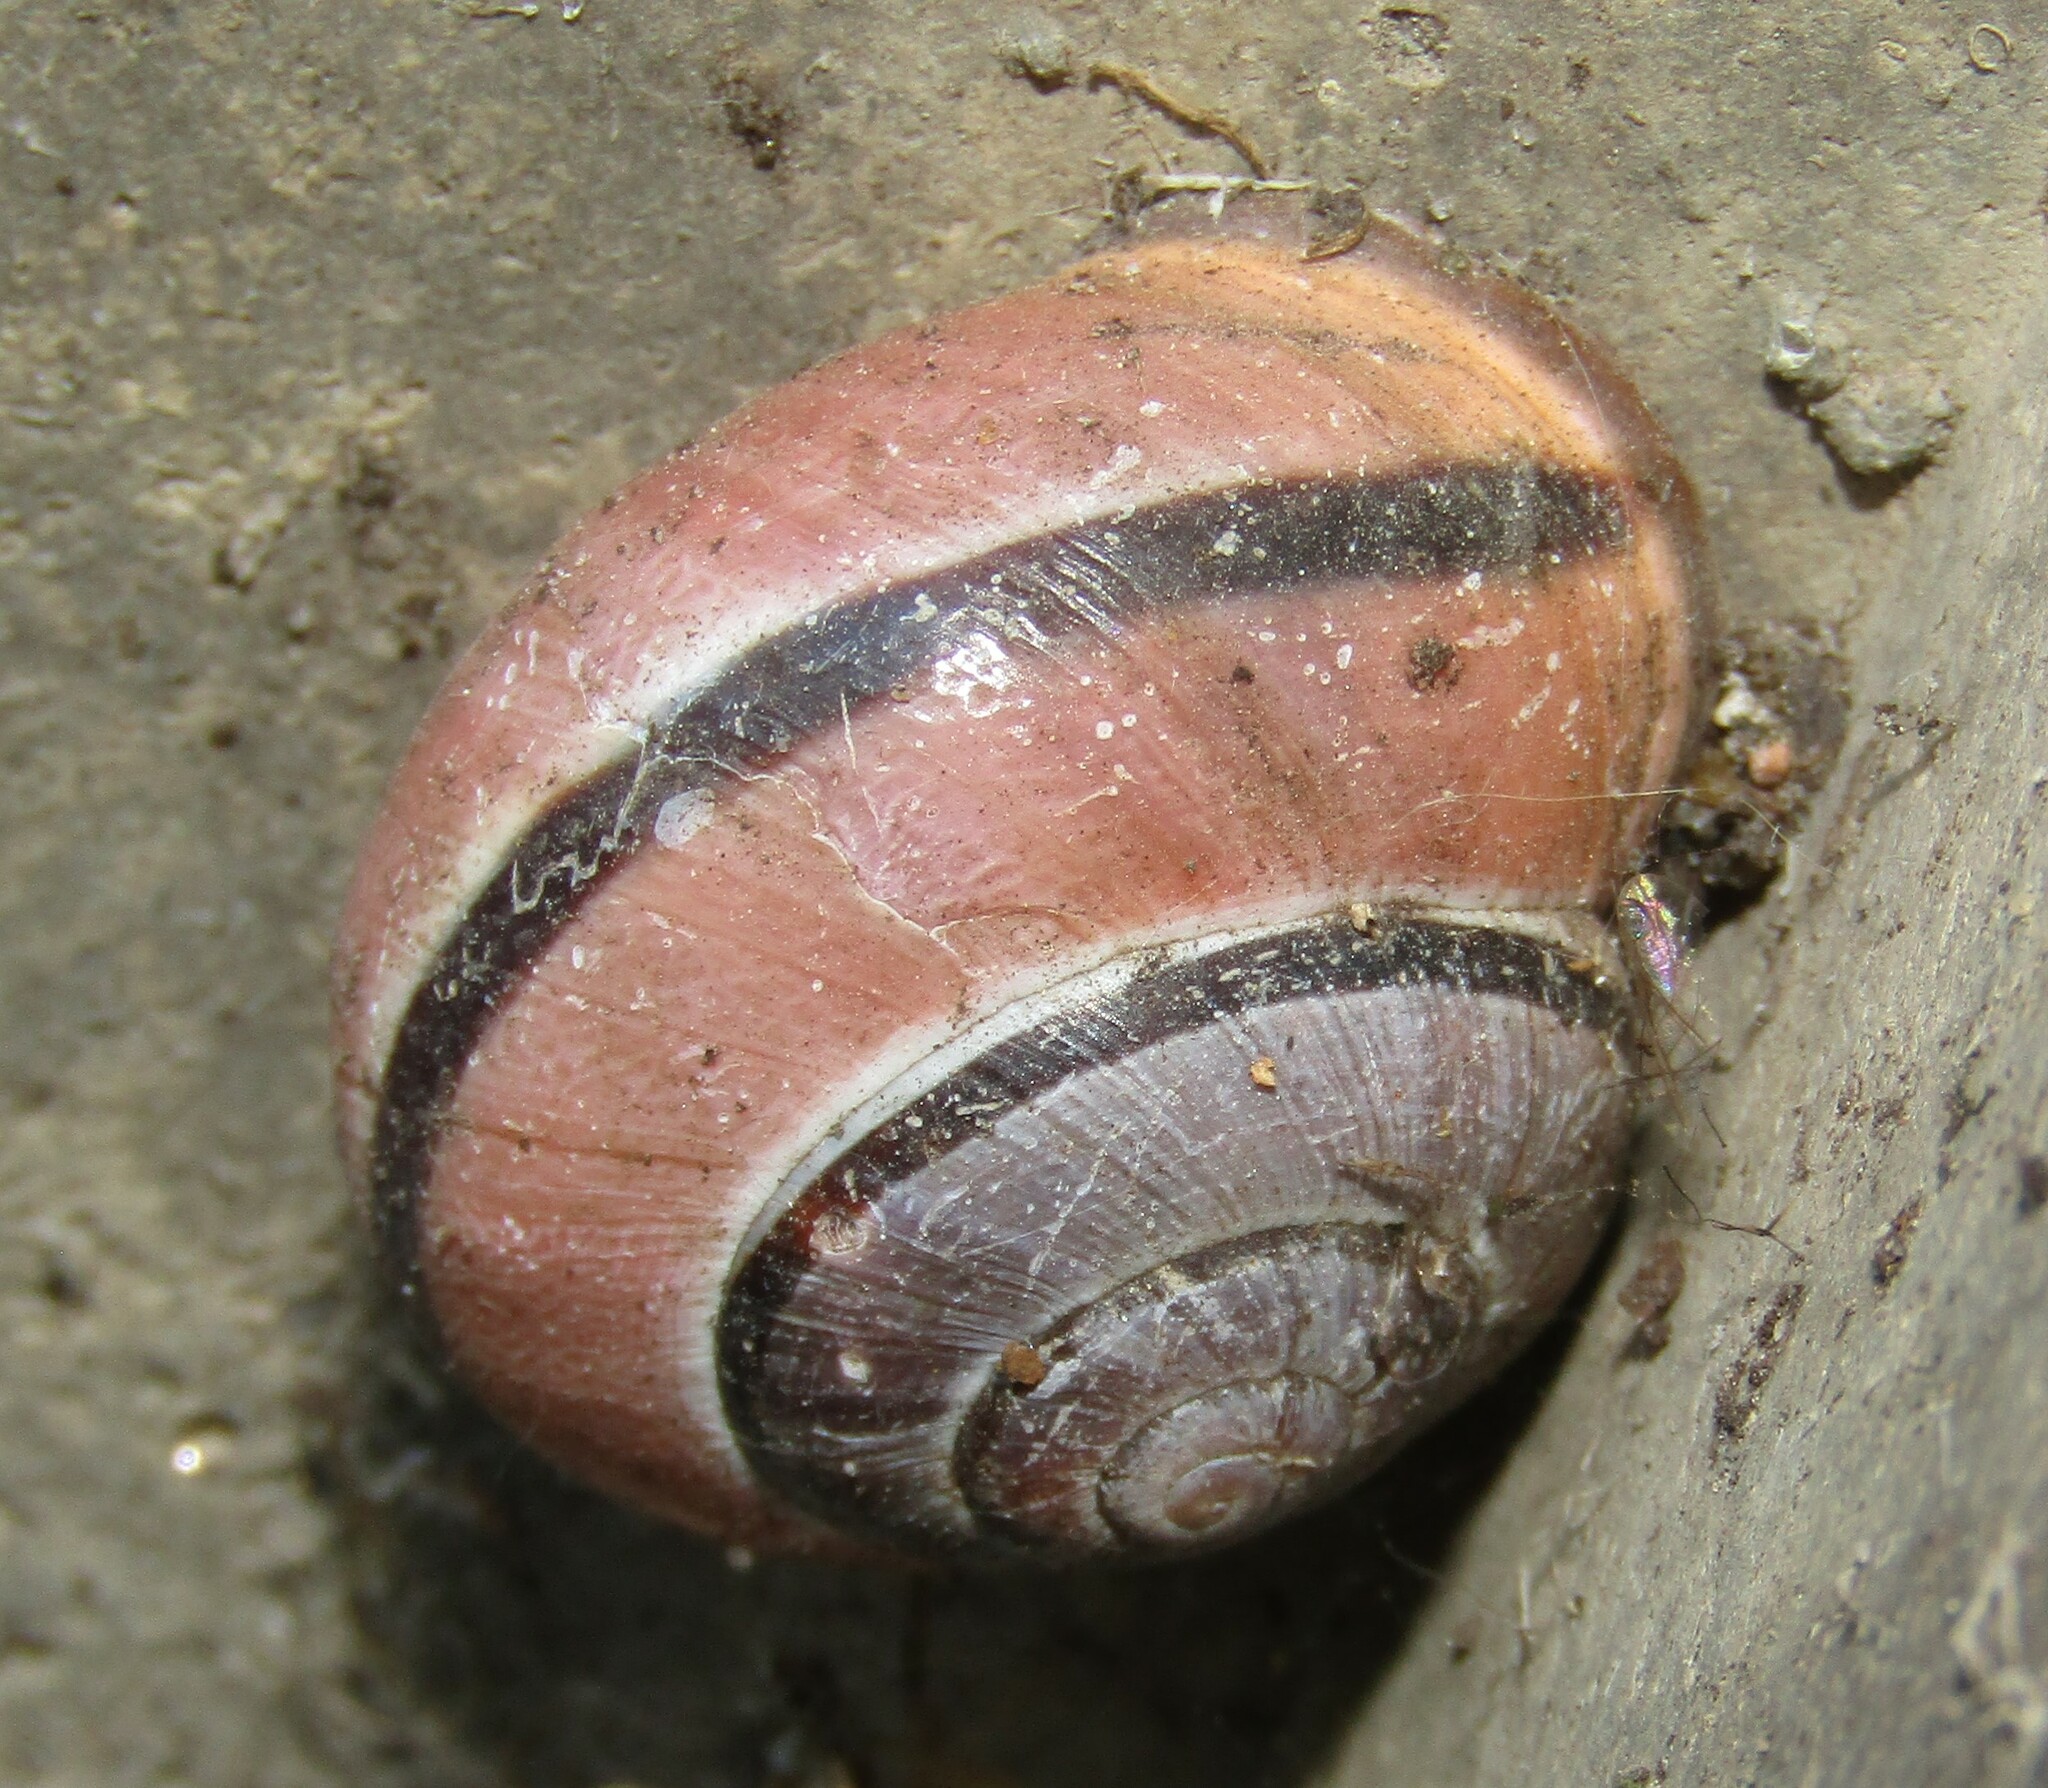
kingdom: Animalia
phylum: Mollusca
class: Gastropoda
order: Stylommatophora
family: Helicidae
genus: Cepaea
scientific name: Cepaea nemoralis
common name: Grovesnail
